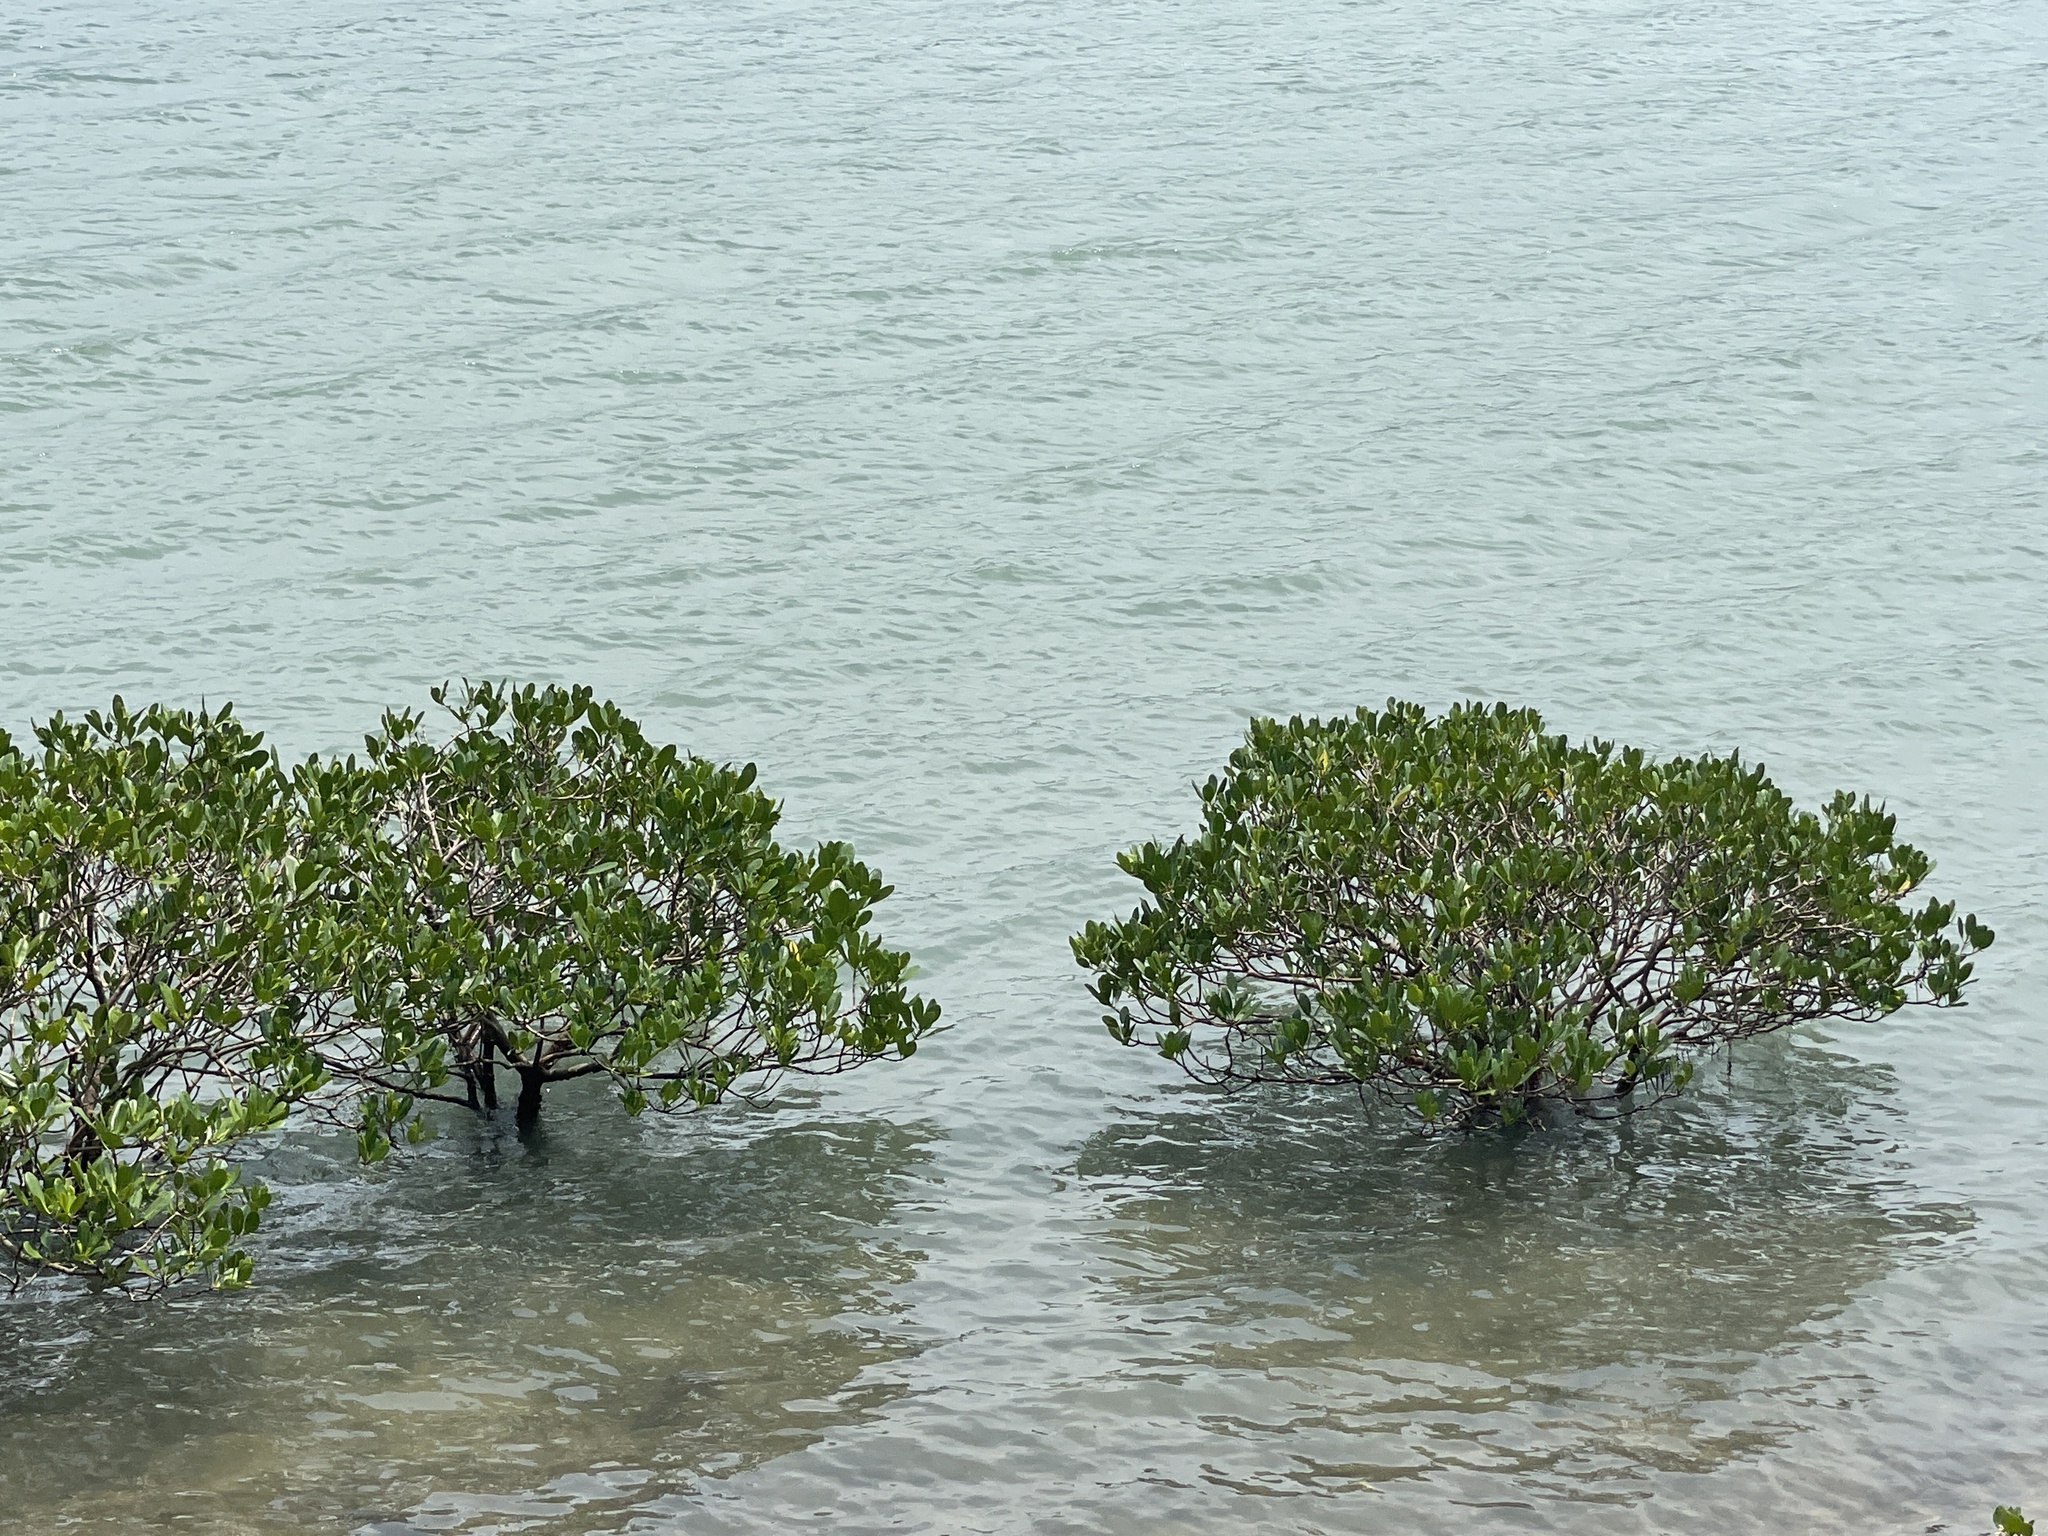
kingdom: Plantae
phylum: Tracheophyta
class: Magnoliopsida
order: Malpighiales
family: Rhizophoraceae
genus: Kandelia
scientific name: Kandelia obovata
